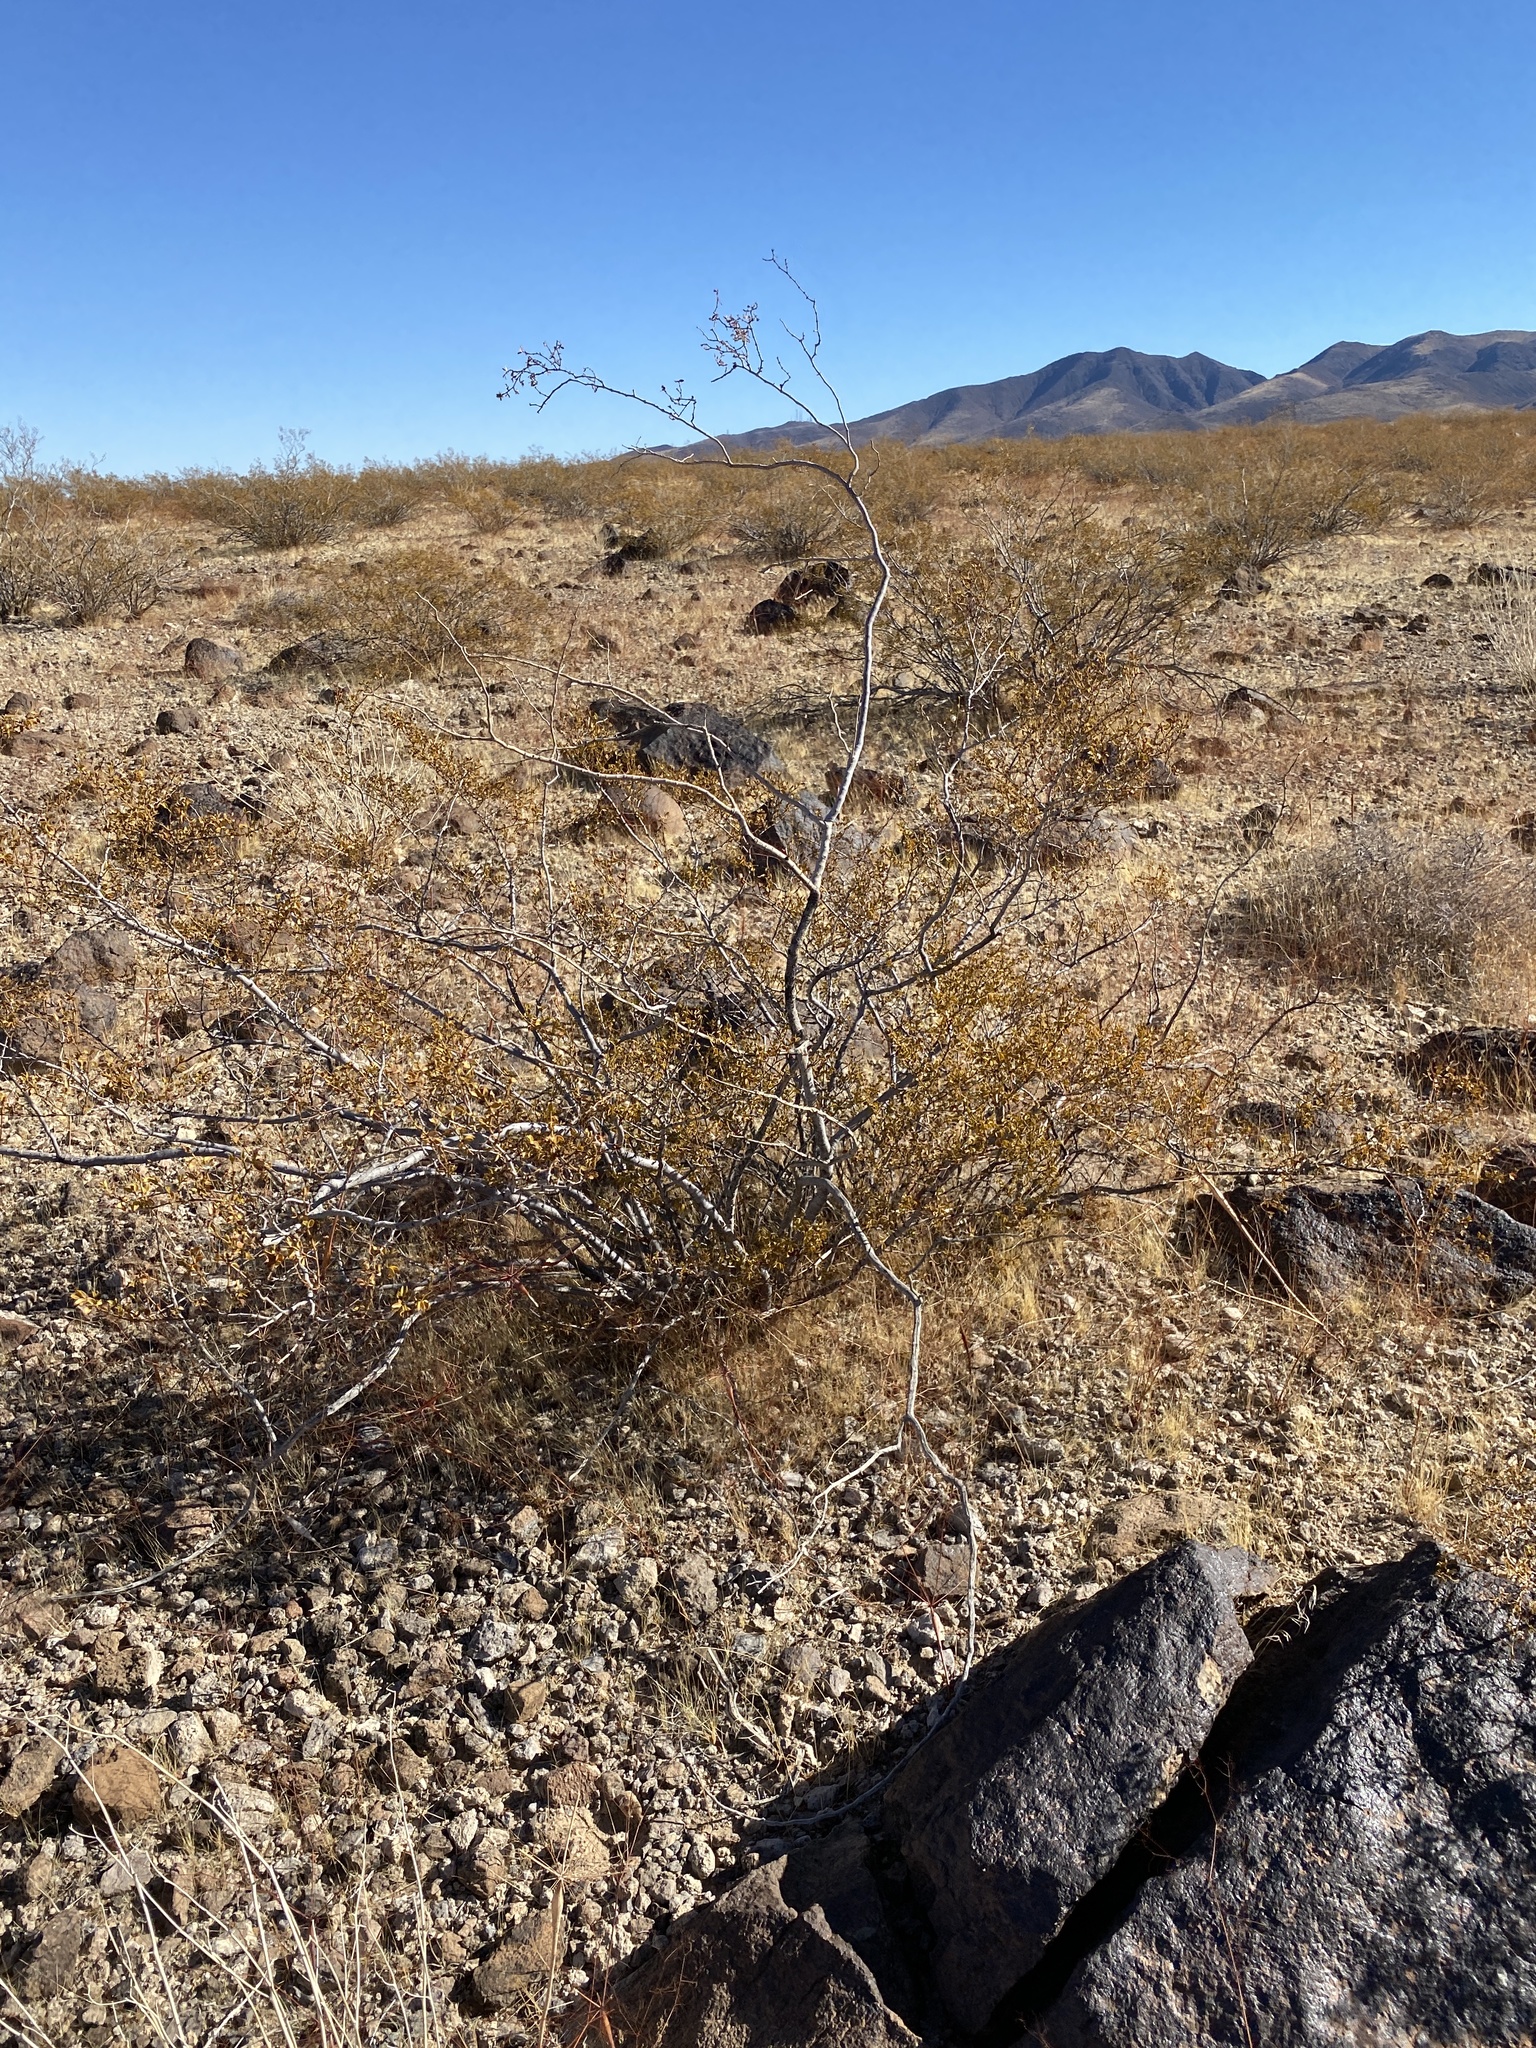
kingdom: Plantae
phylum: Tracheophyta
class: Magnoliopsida
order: Zygophyllales
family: Zygophyllaceae
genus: Larrea
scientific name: Larrea tridentata
